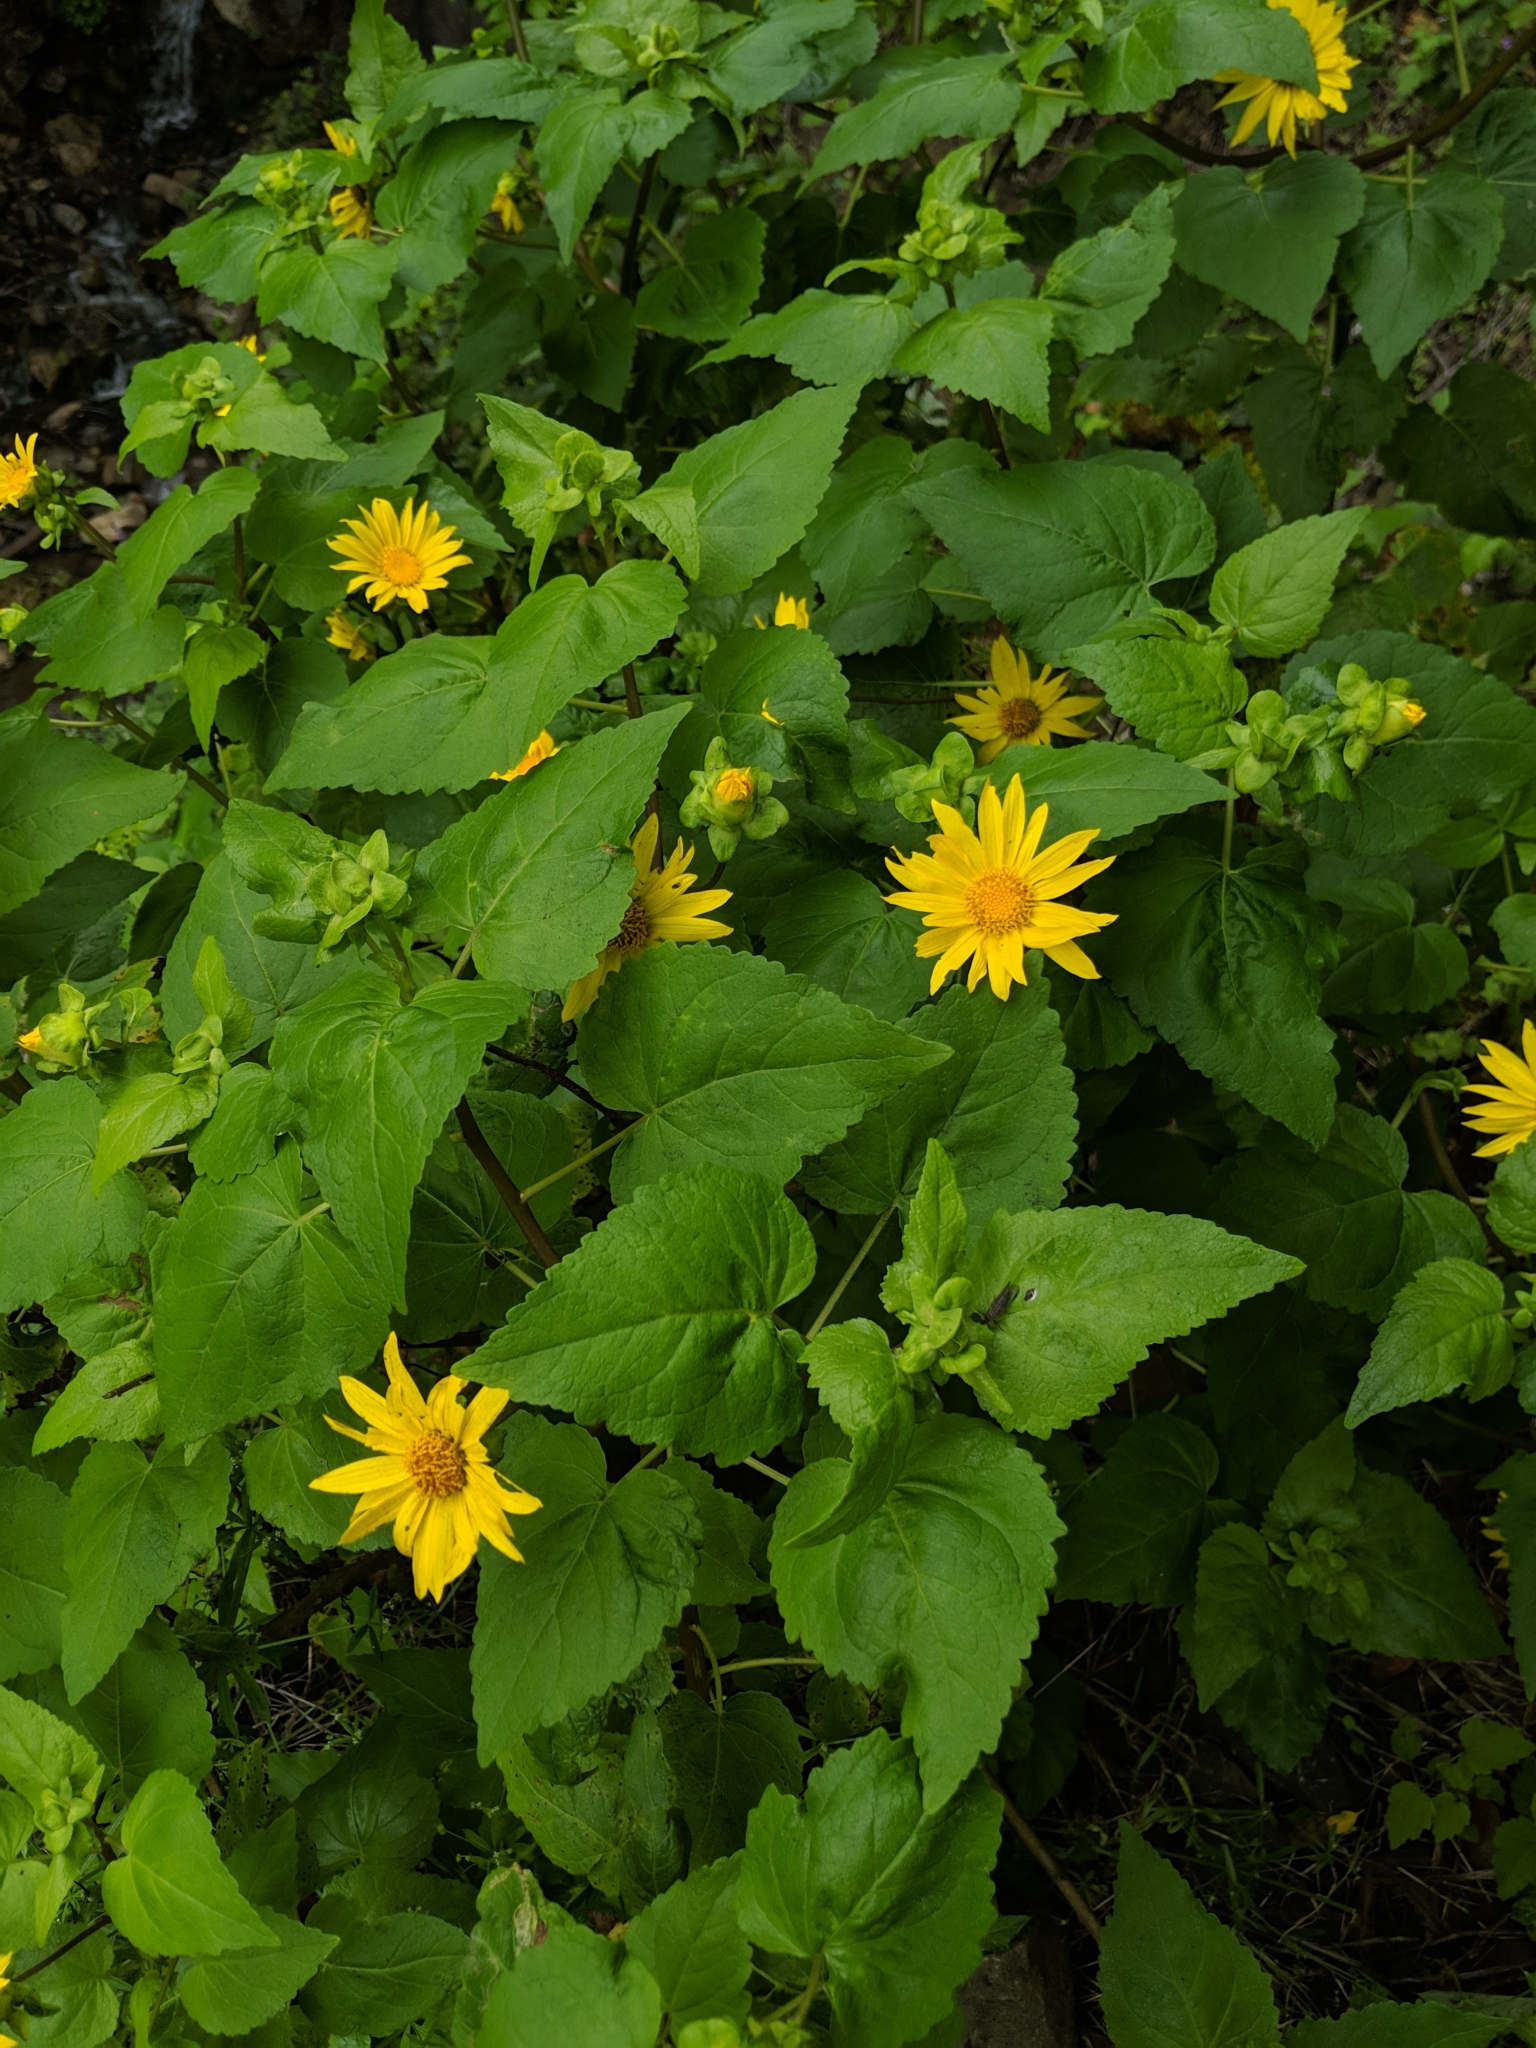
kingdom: Plantae
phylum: Tracheophyta
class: Magnoliopsida
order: Asterales
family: Asteraceae
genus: Venegasia
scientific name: Venegasia carpesioides
